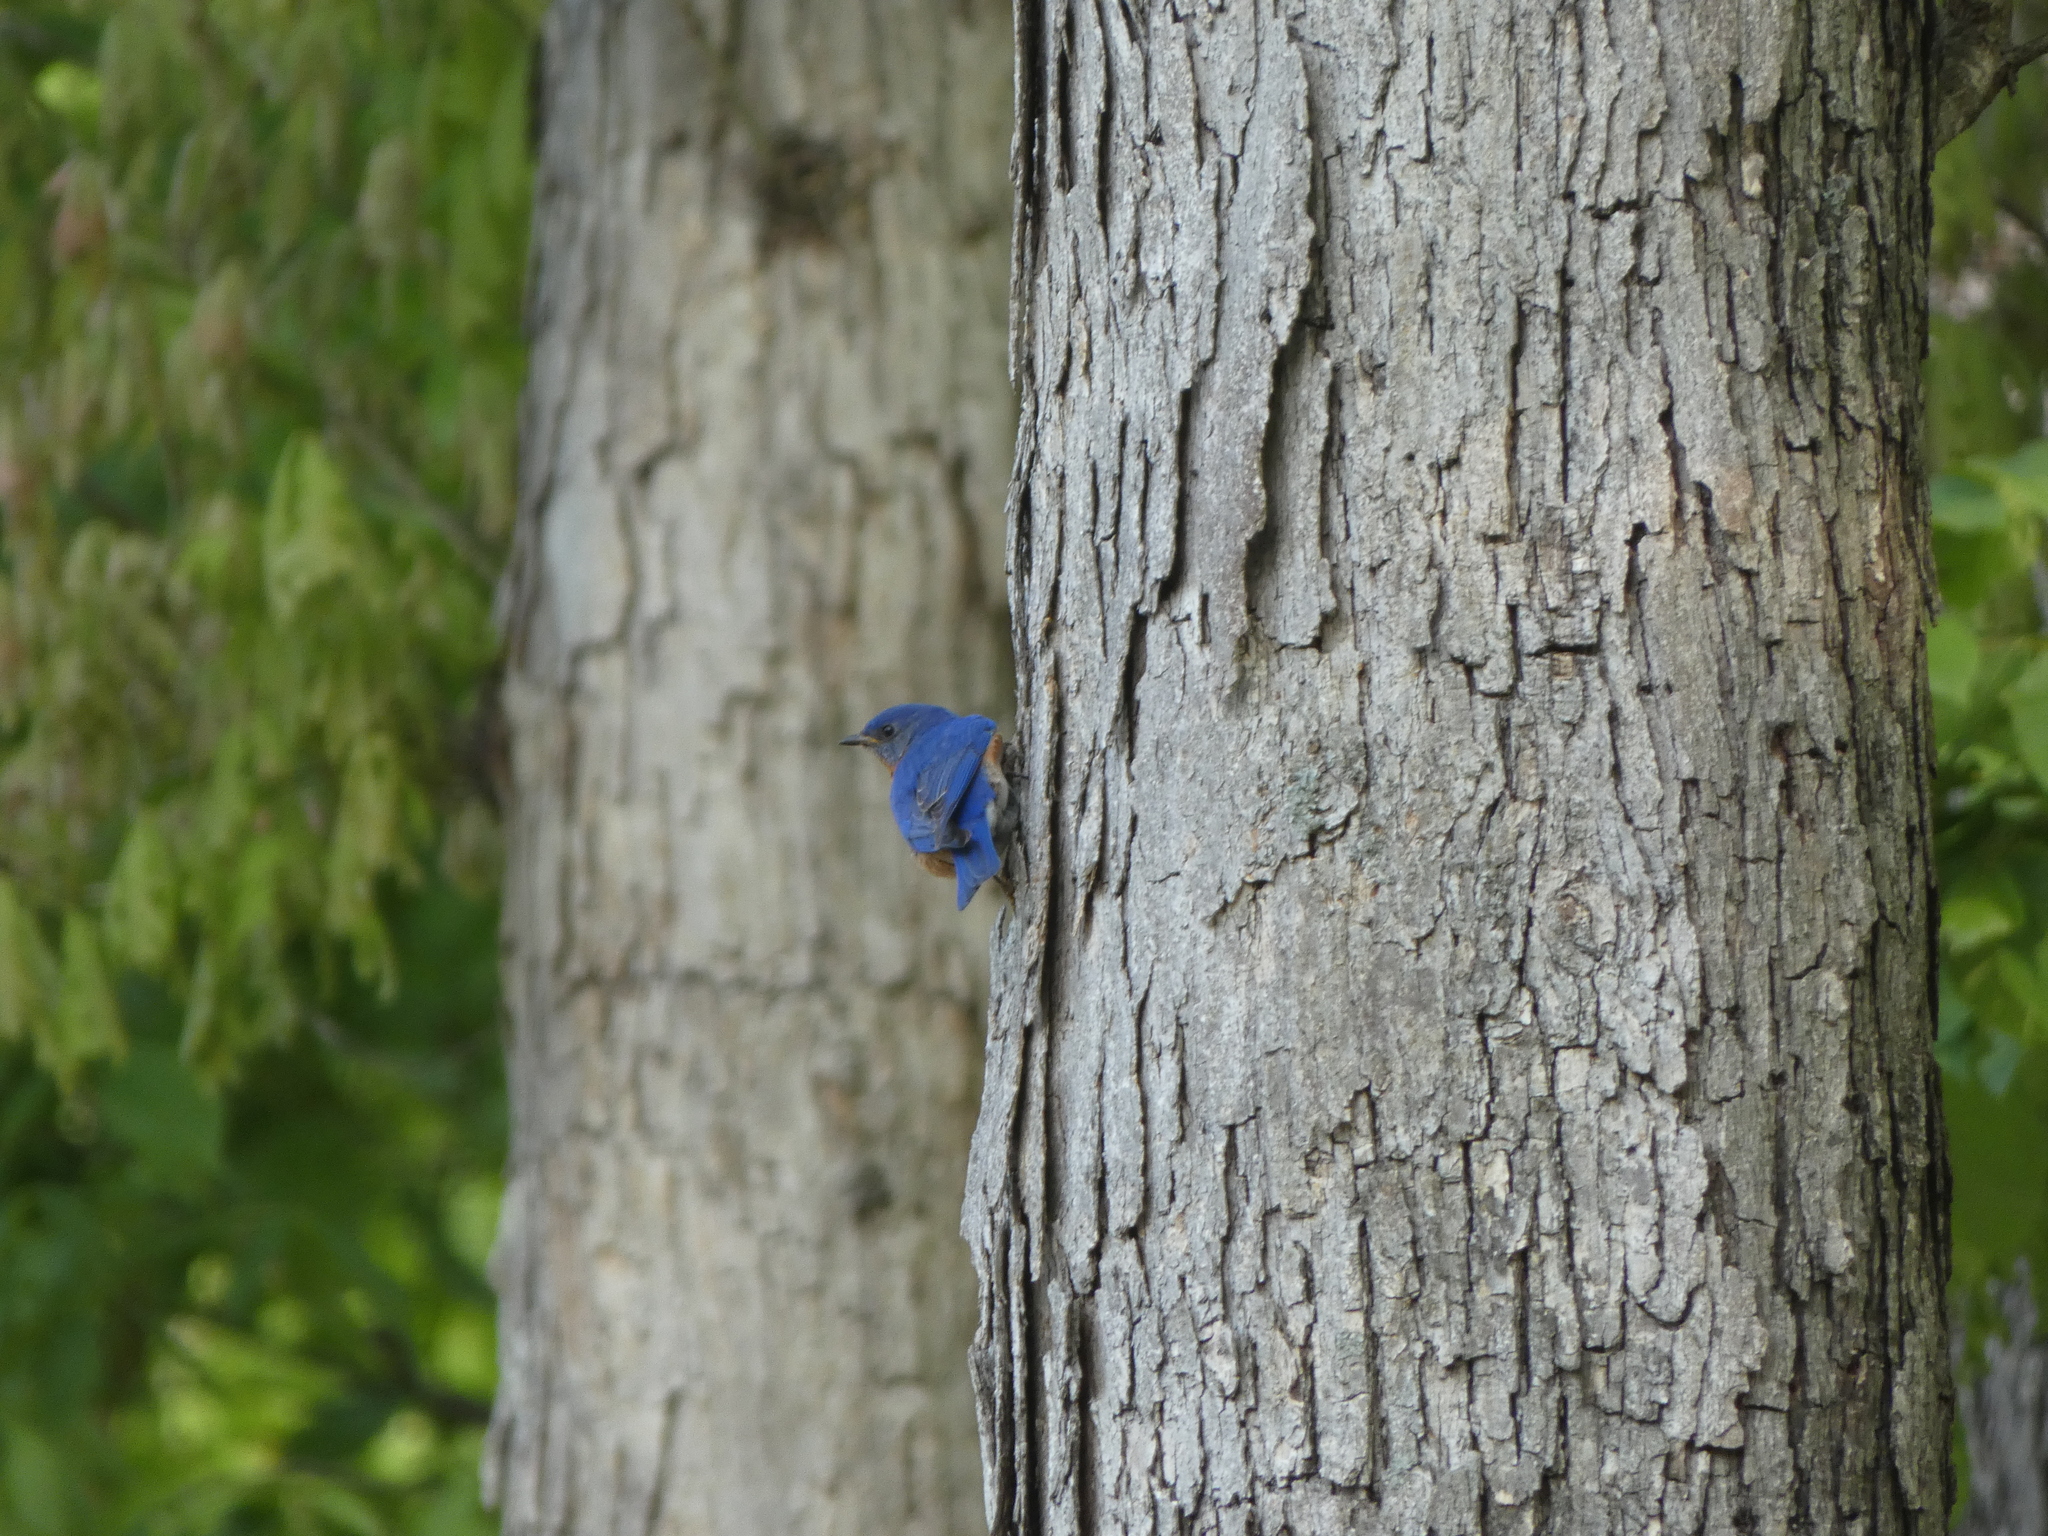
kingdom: Animalia
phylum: Chordata
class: Aves
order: Passeriformes
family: Turdidae
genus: Sialia
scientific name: Sialia sialis
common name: Eastern bluebird
